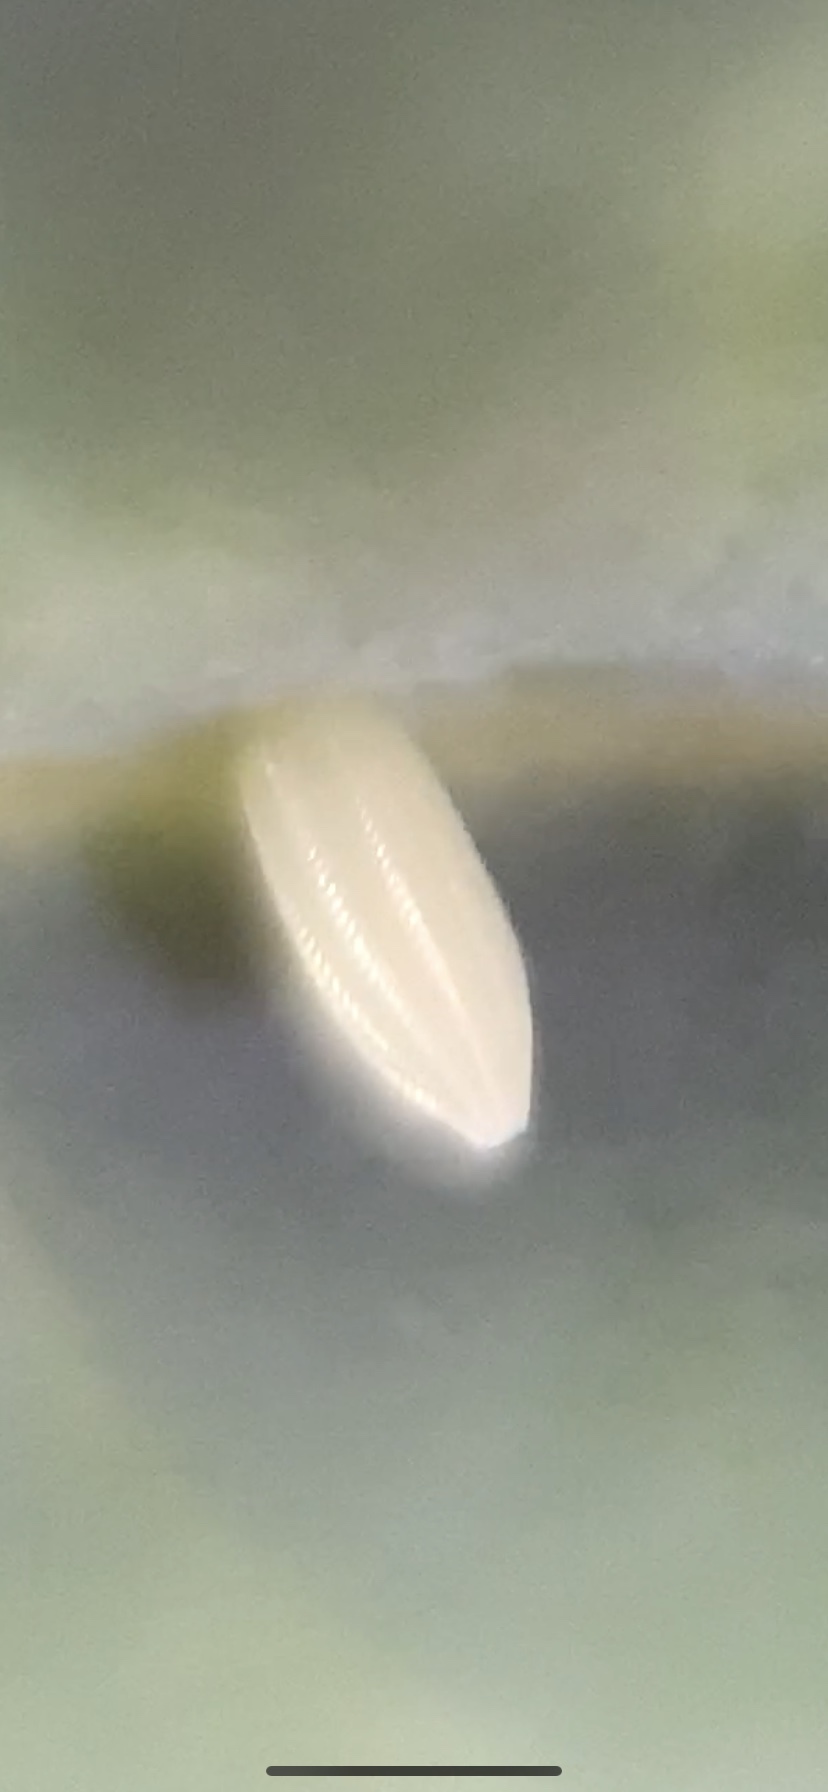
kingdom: Animalia
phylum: Arthropoda
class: Insecta
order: Lepidoptera
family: Pieridae
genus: Pieris
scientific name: Pieris rapae
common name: Small white
